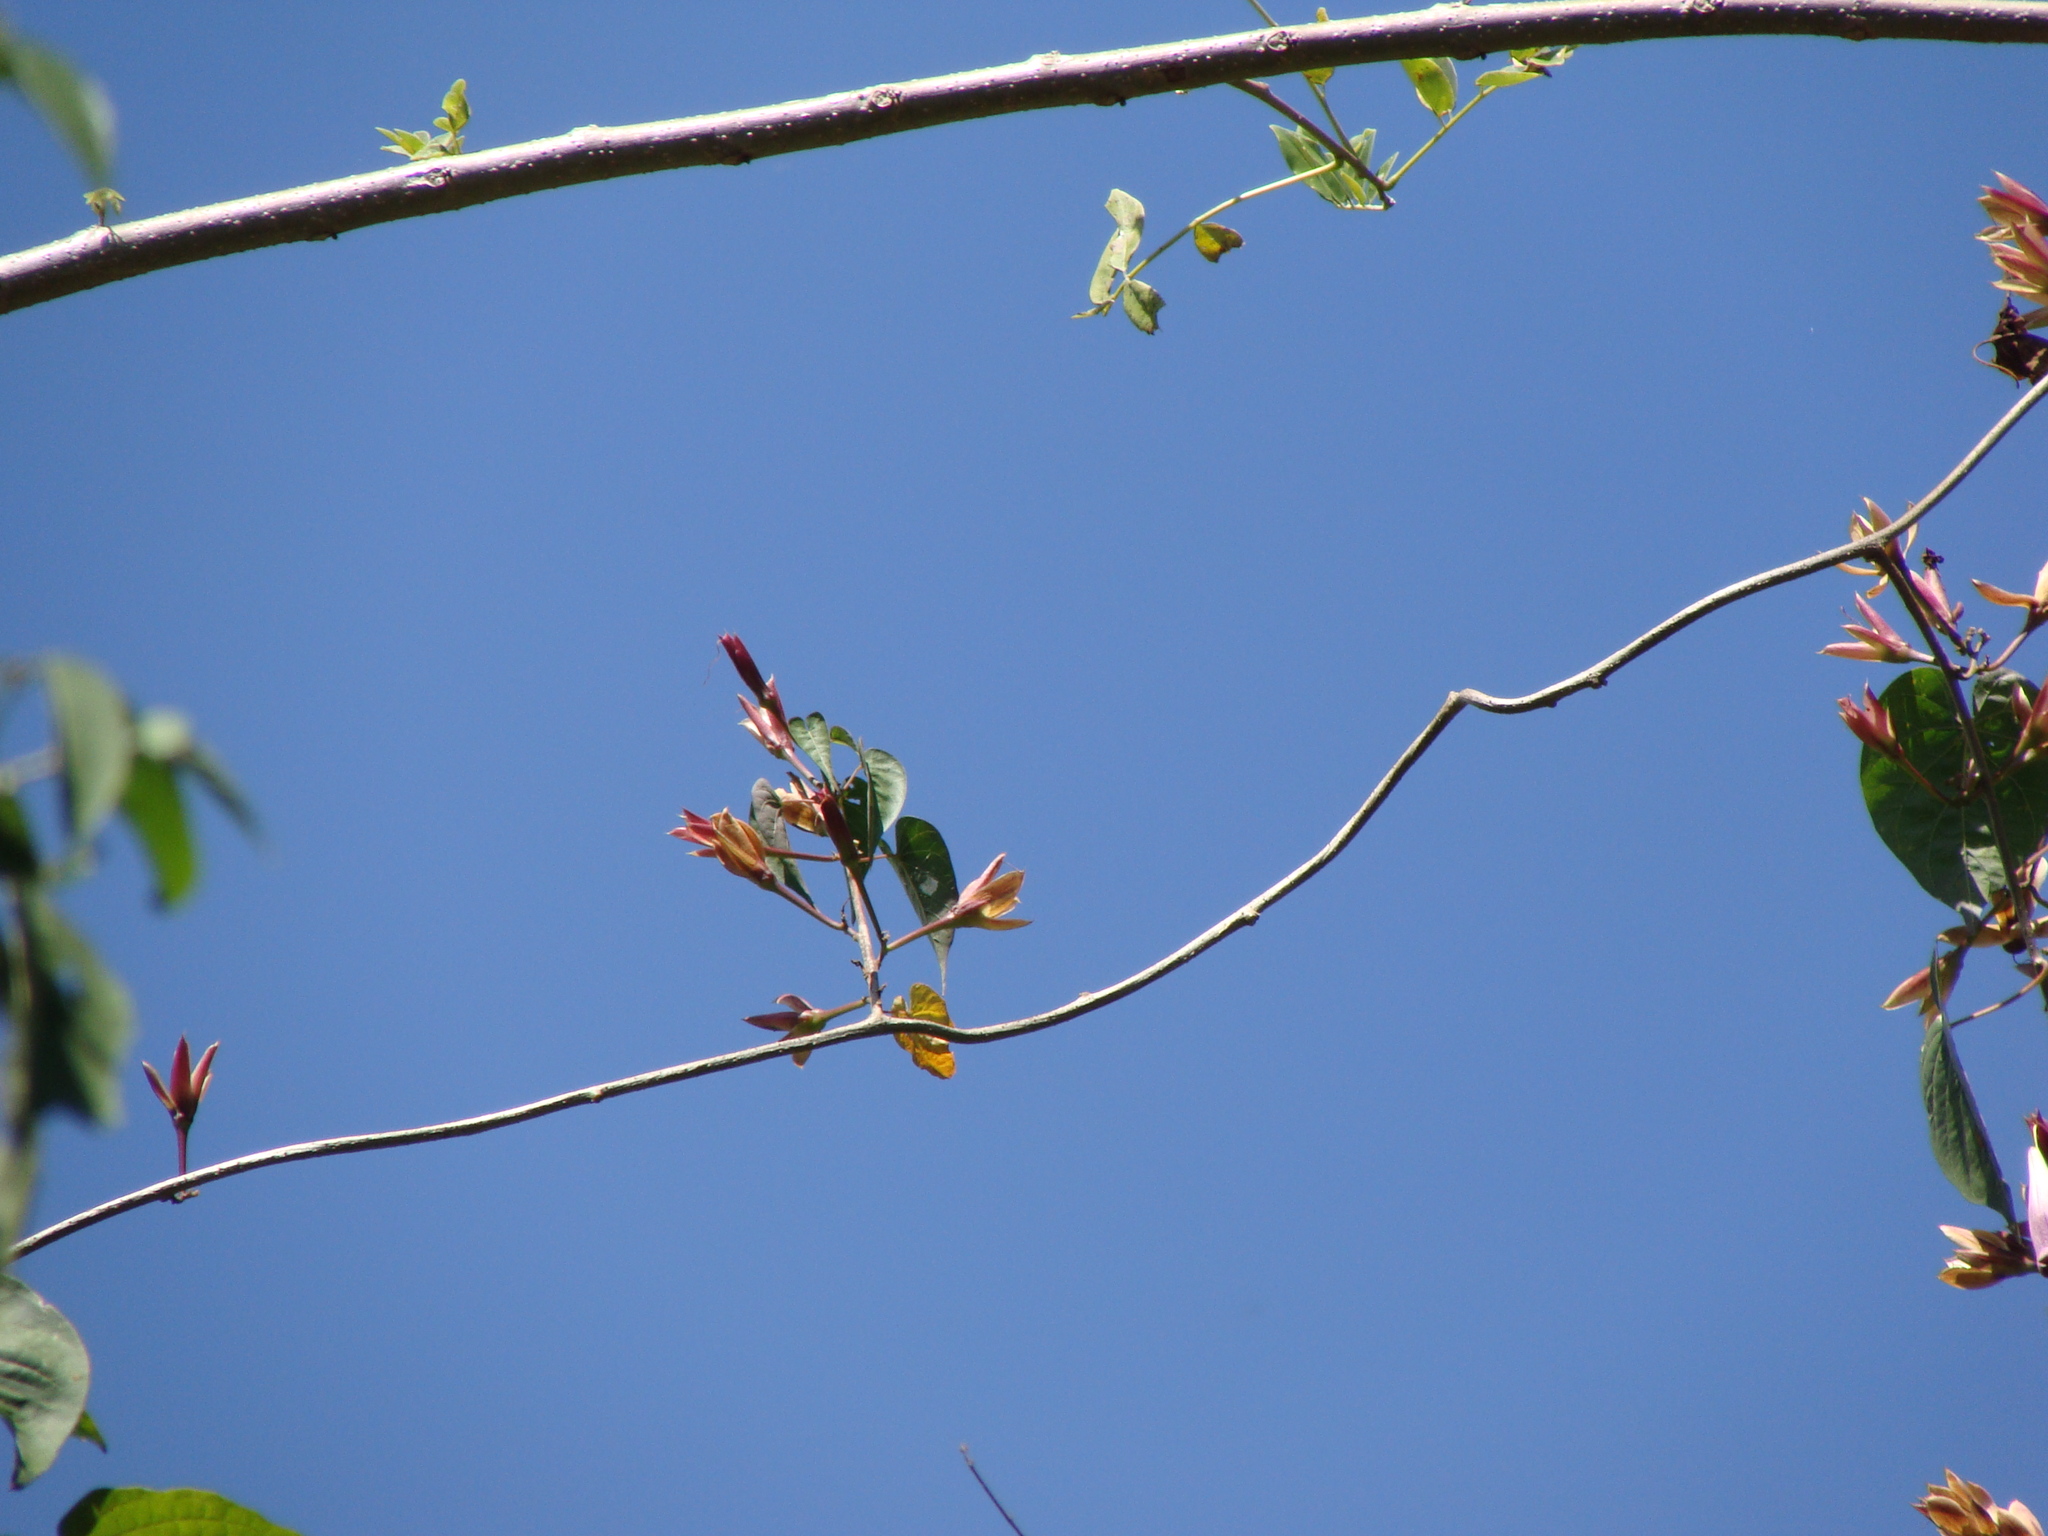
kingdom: Plantae
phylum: Tracheophyta
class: Magnoliopsida
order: Solanales
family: Convolvulaceae
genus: Ipomoea
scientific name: Ipomoea bernoulliana
